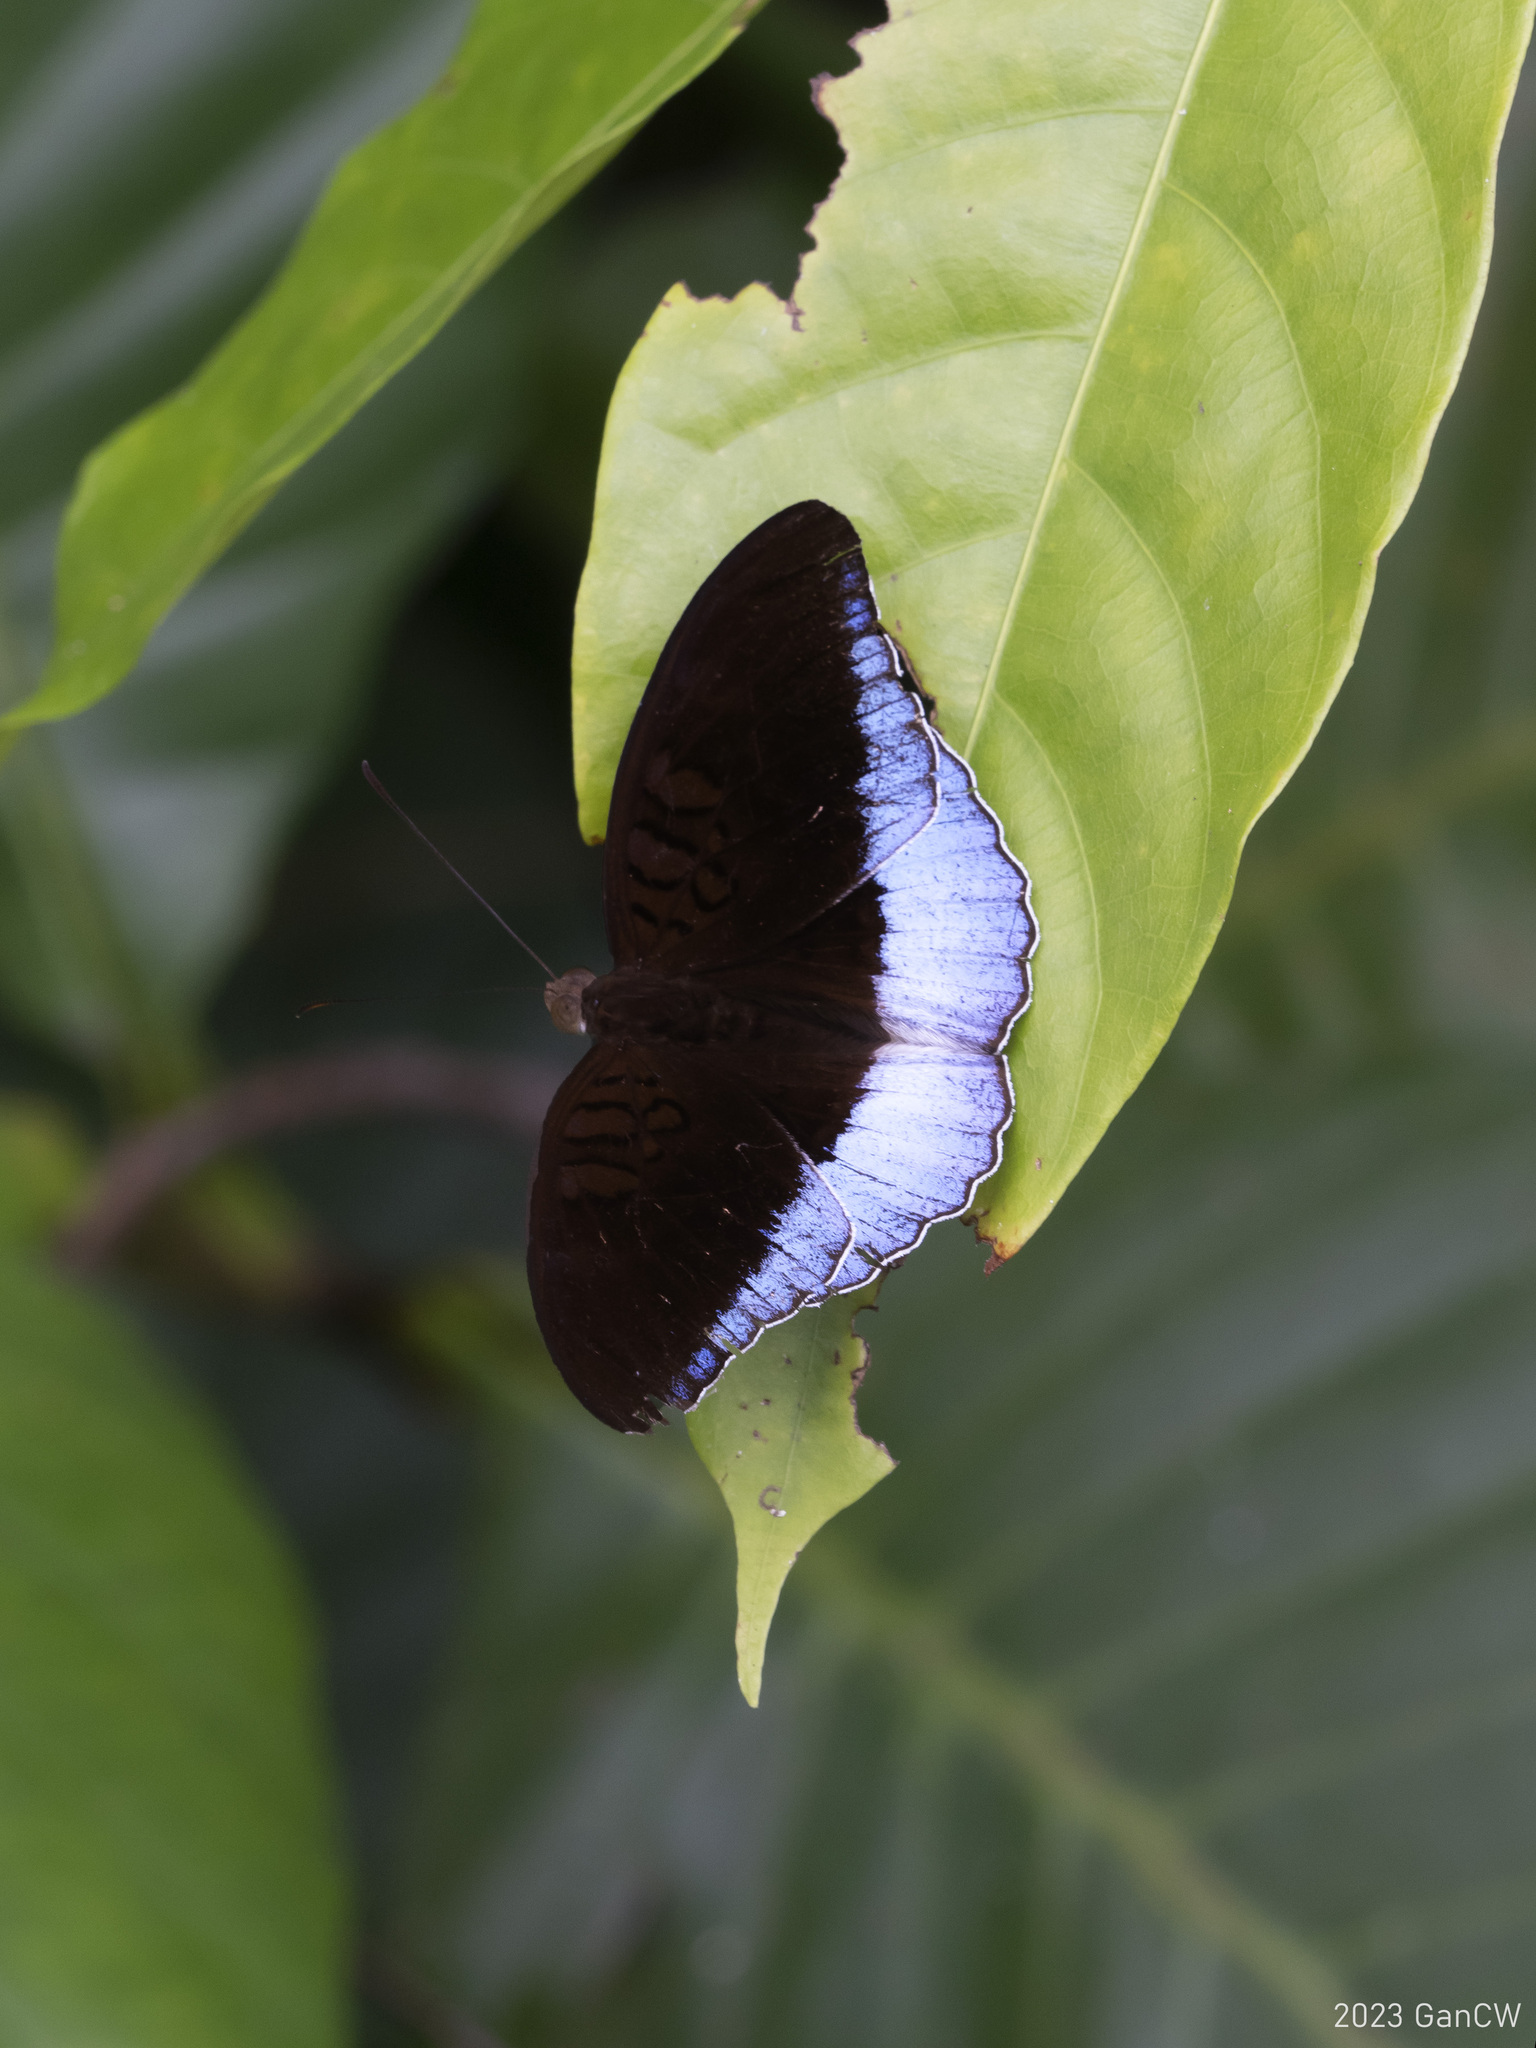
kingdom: Animalia
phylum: Arthropoda
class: Insecta
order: Lepidoptera
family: Nymphalidae
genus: Tanaecia
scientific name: Tanaecia iapis
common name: Horsfield's baron
